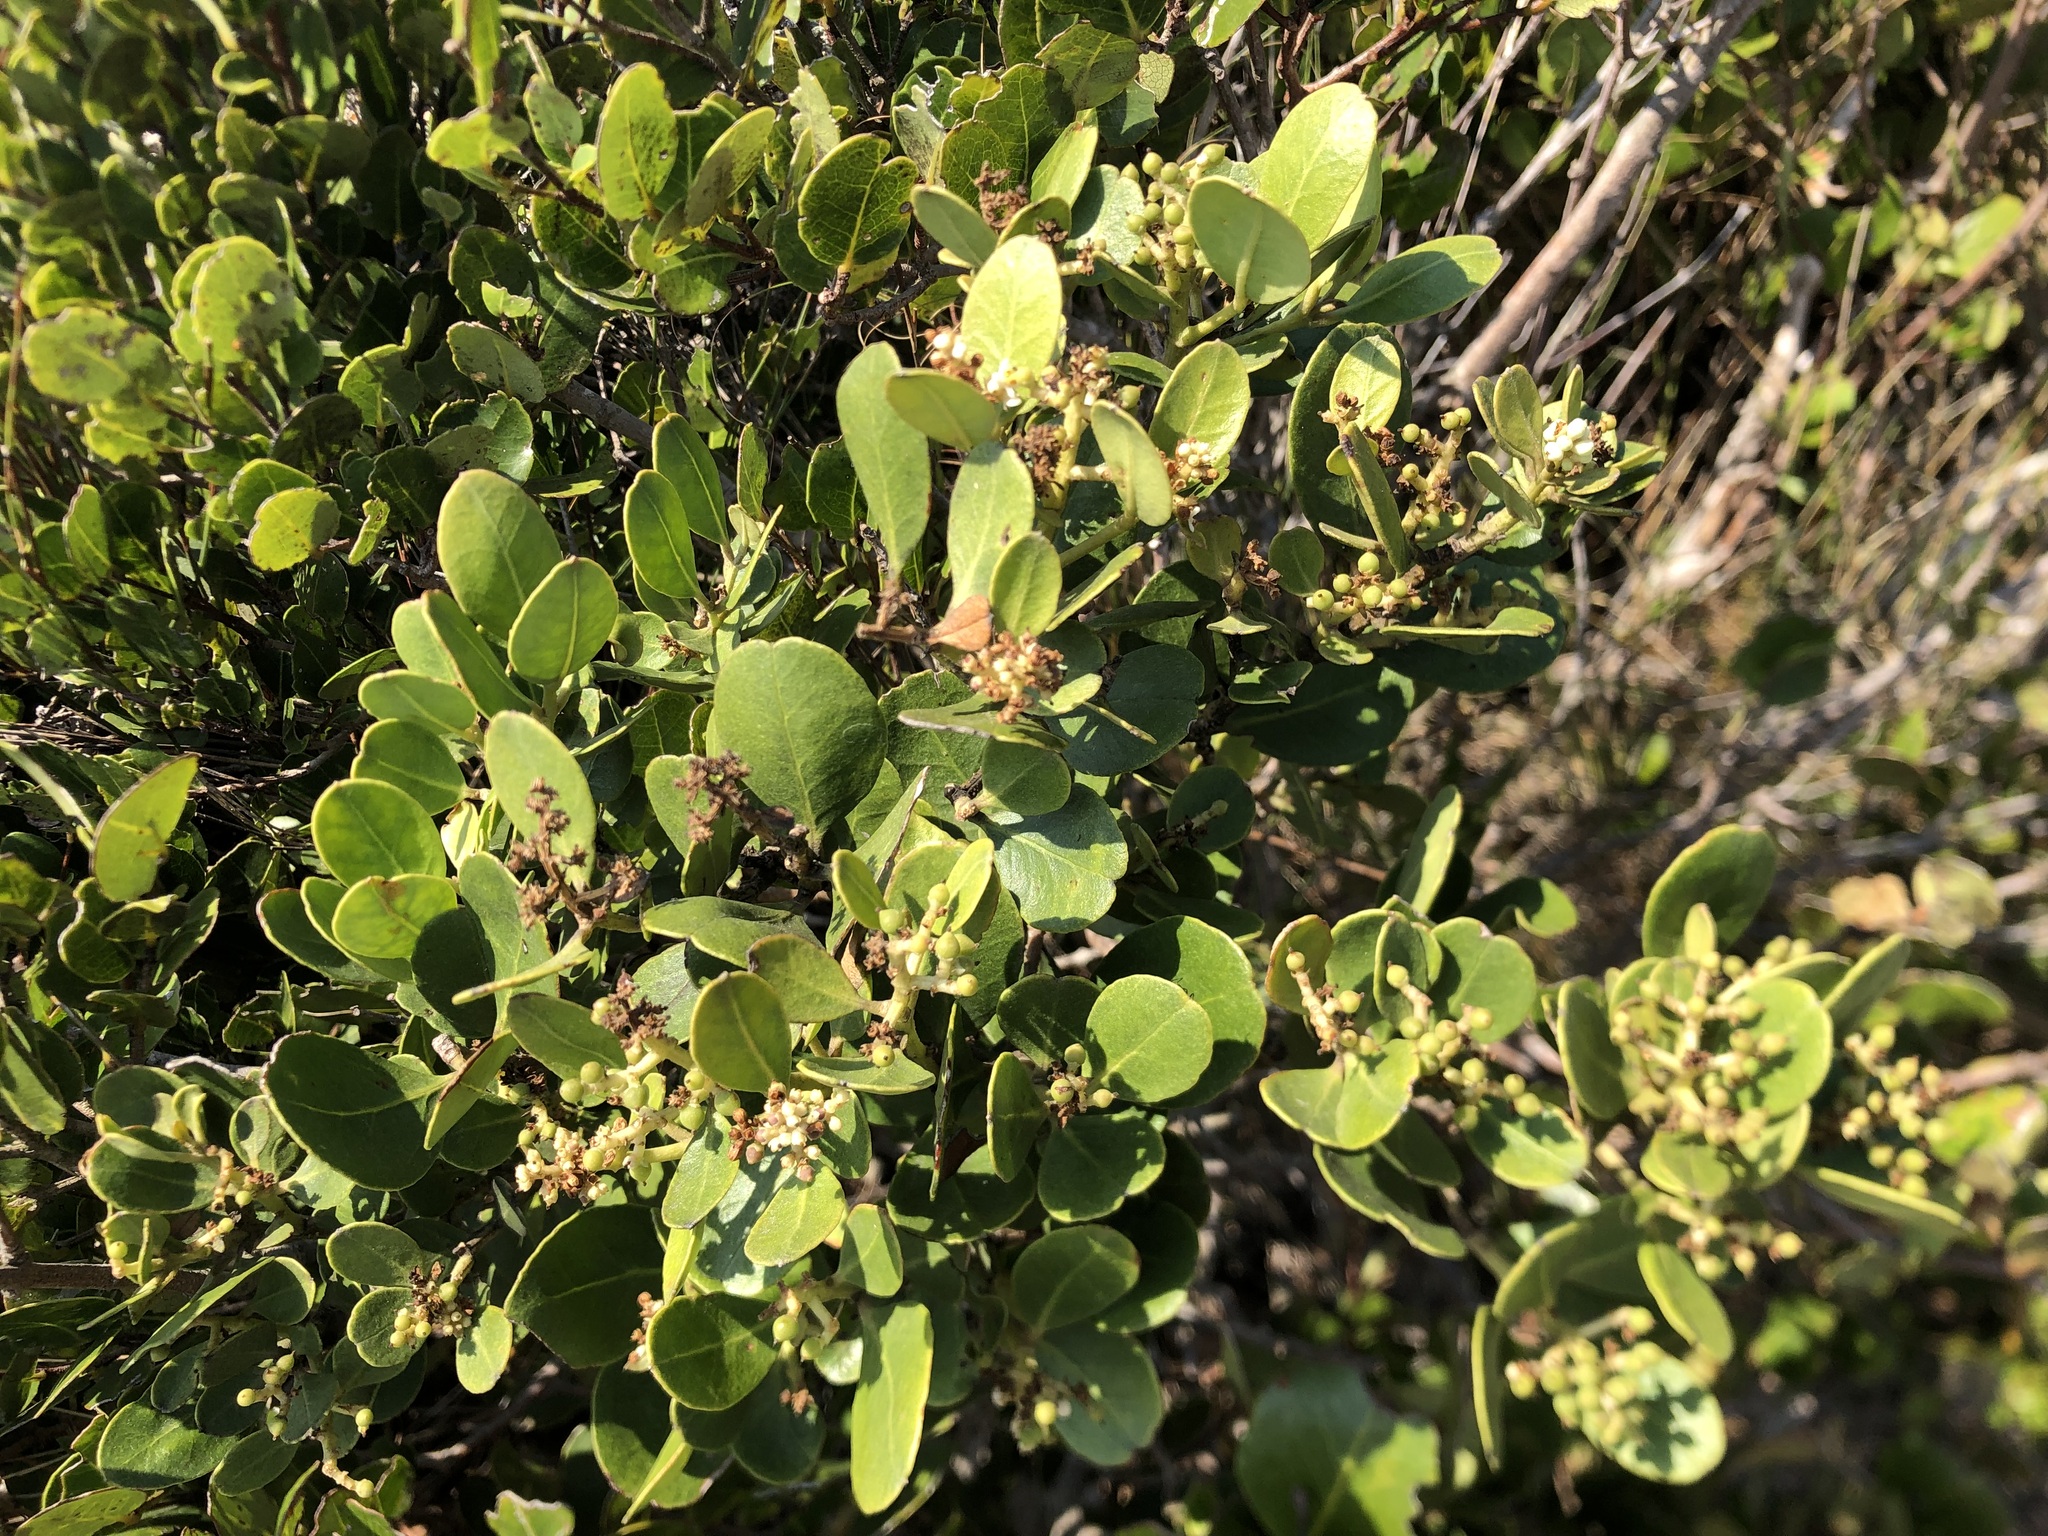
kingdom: Plantae
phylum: Tracheophyta
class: Magnoliopsida
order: Lamiales
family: Oleaceae
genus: Olea
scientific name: Olea capensis
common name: Black ironwood
